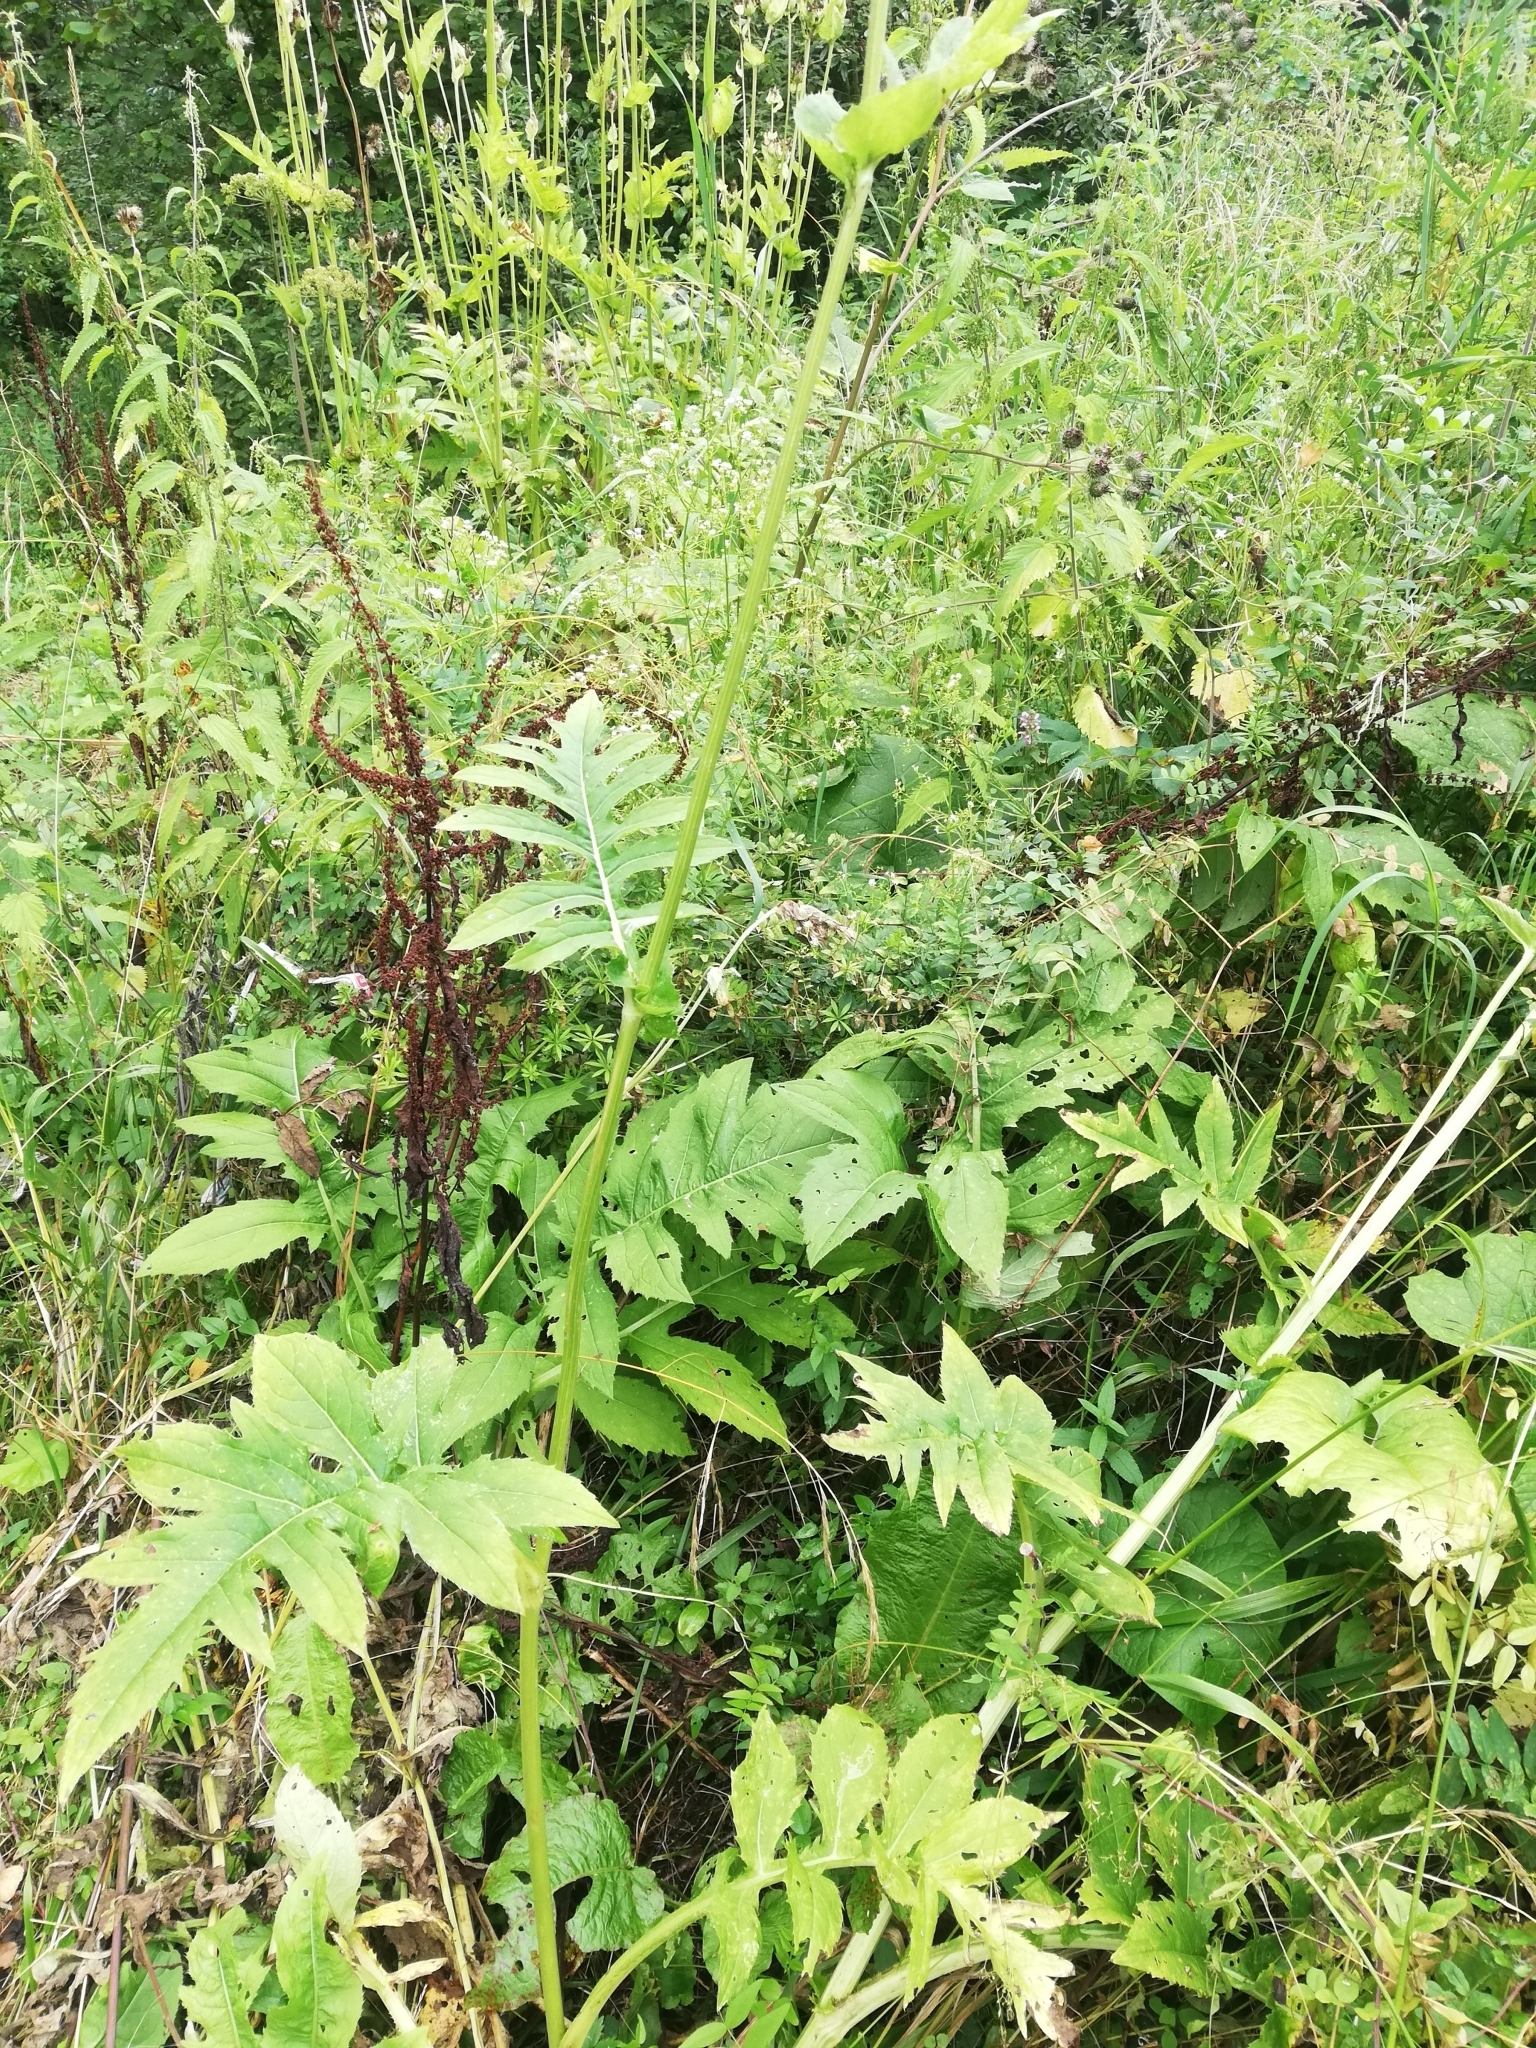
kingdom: Plantae
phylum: Tracheophyta
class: Magnoliopsida
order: Asterales
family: Asteraceae
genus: Cirsium
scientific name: Cirsium oleraceum
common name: Cabbage thistle
